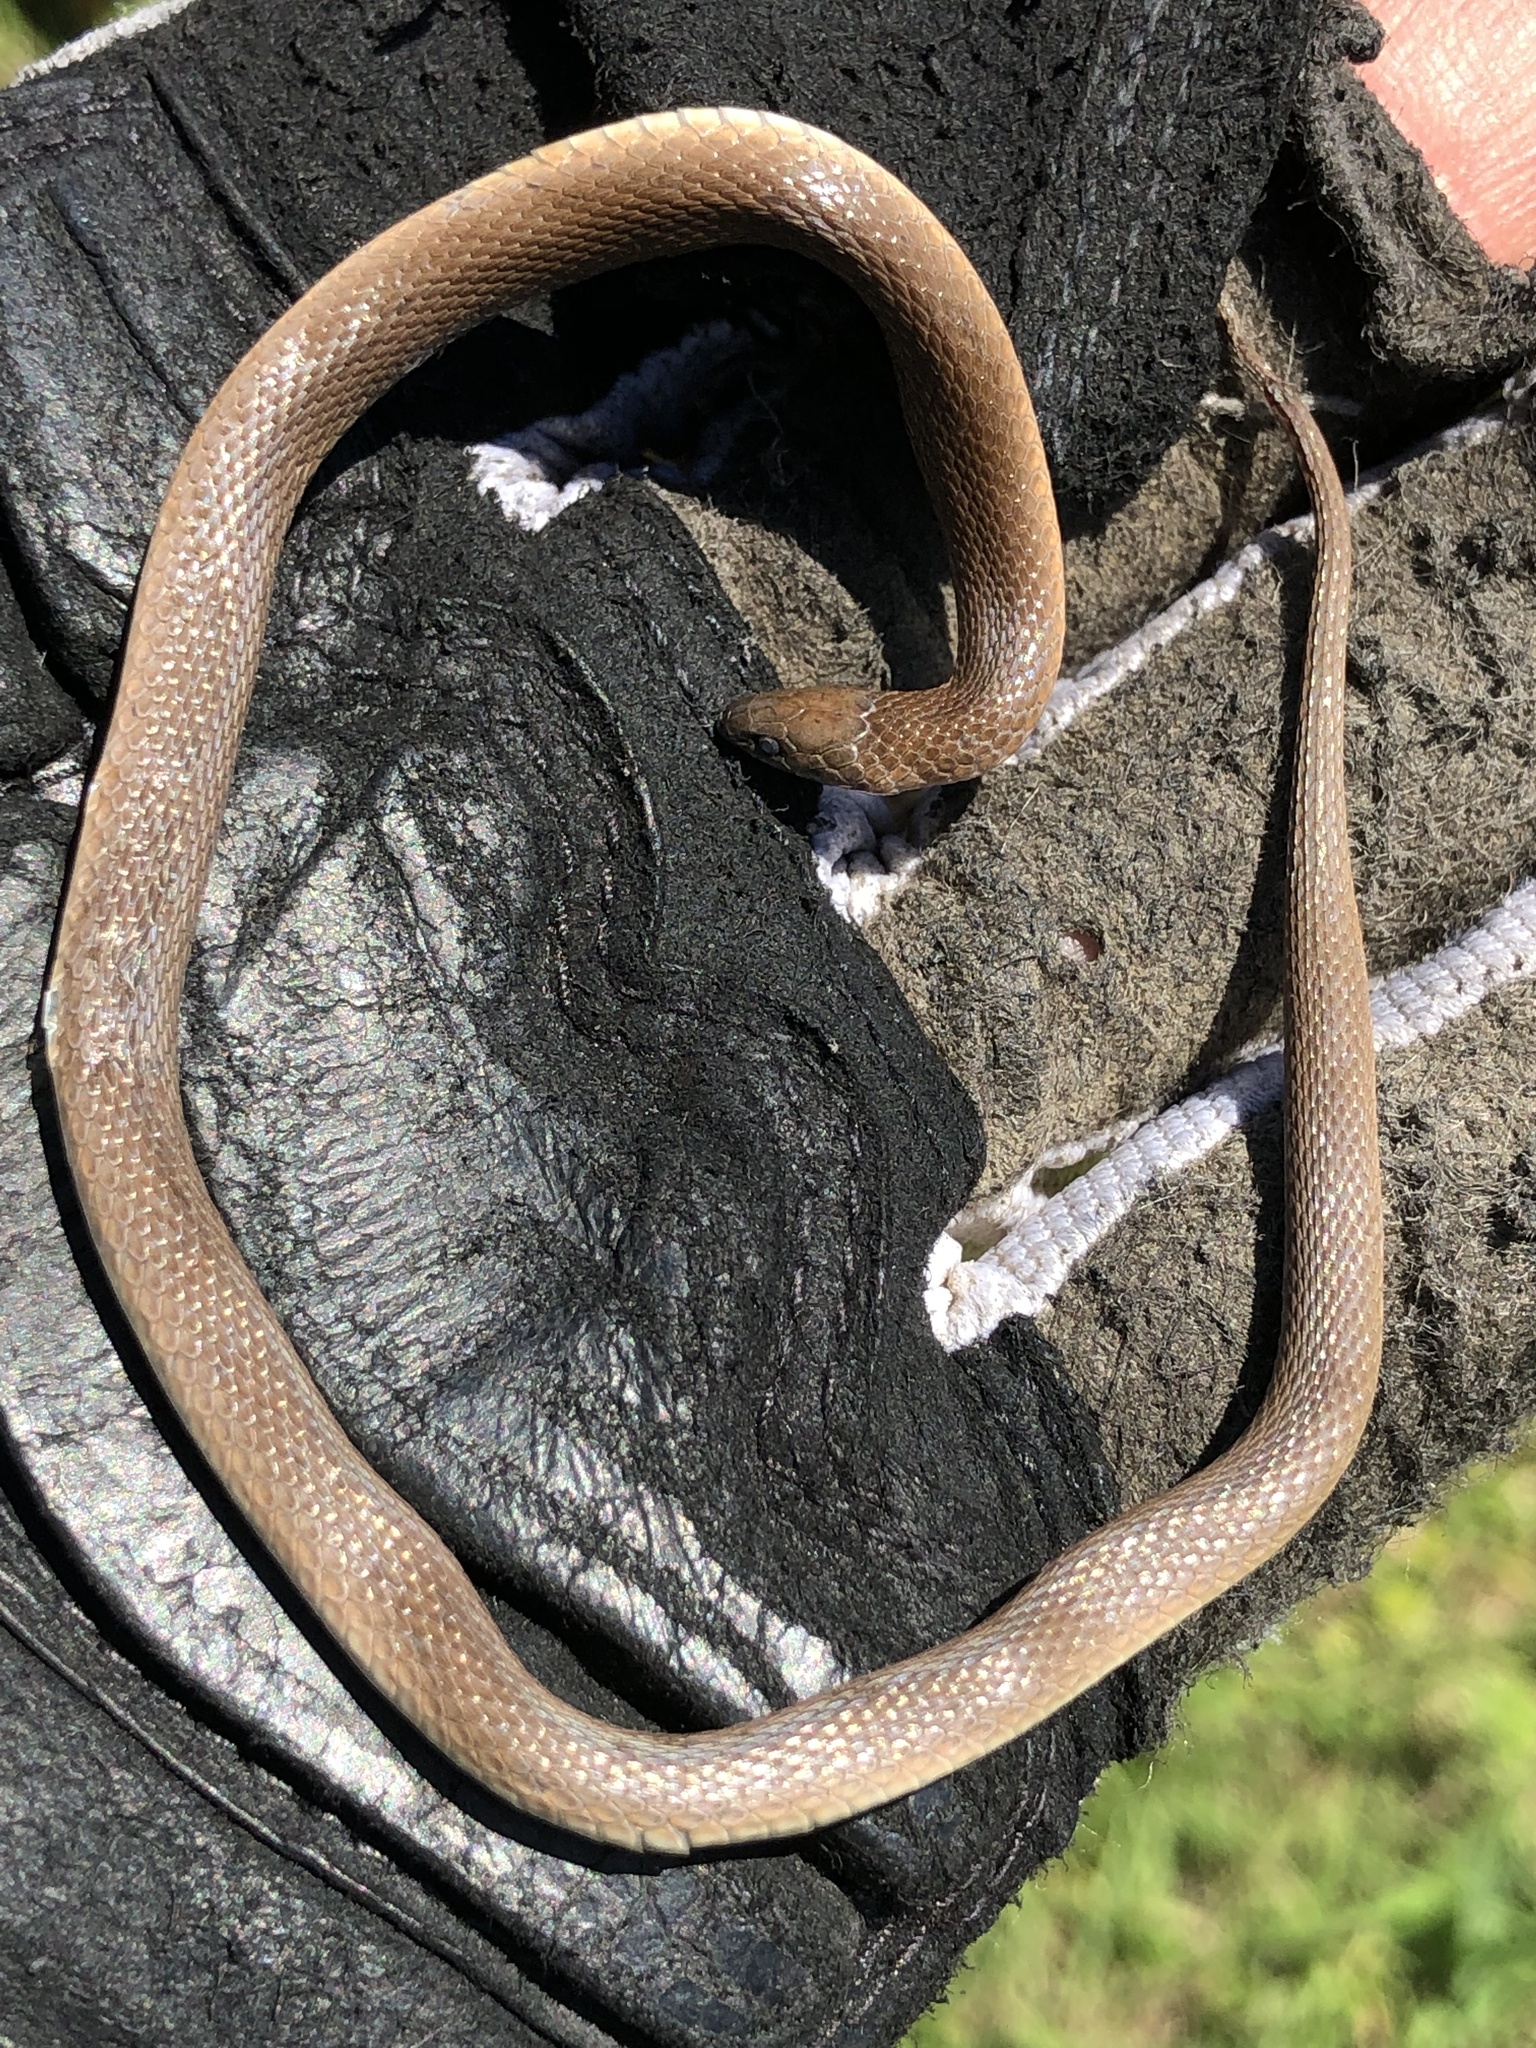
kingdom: Animalia
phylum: Chordata
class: Squamata
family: Colubridae
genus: Haldea
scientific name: Haldea striatula
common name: Rough earth snake
